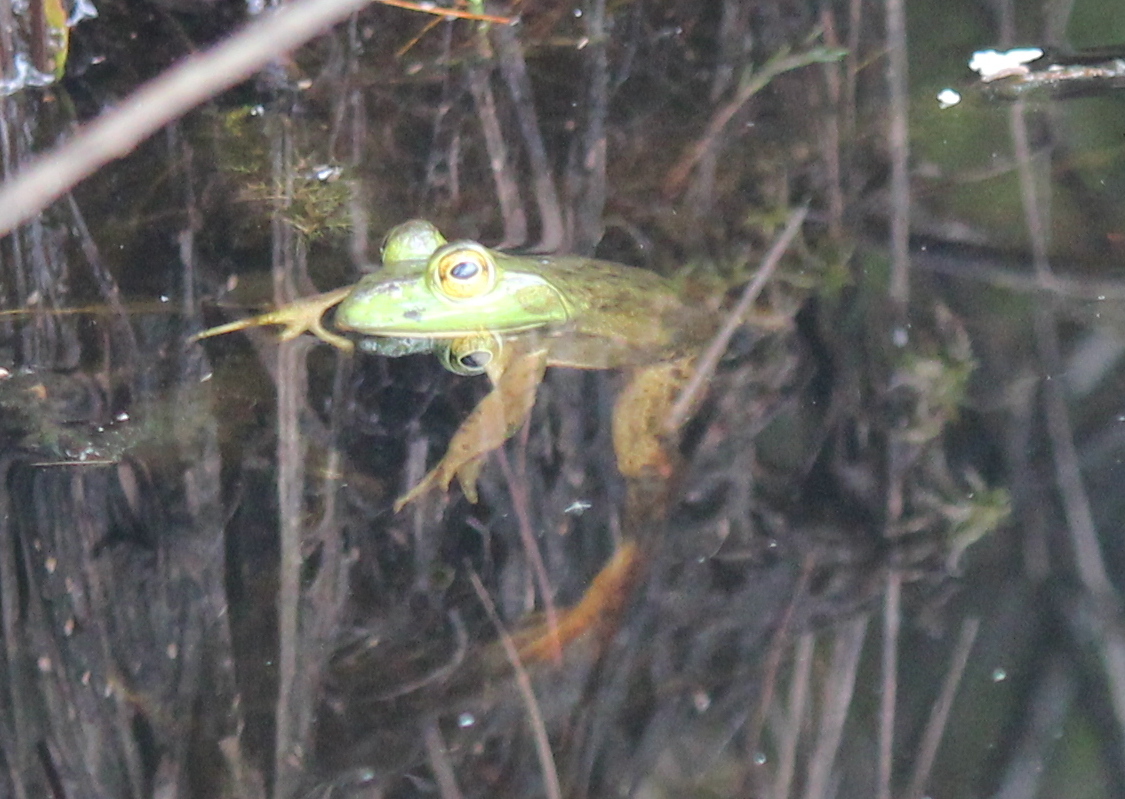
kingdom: Animalia
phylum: Chordata
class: Amphibia
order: Anura
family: Ranidae
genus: Lithobates
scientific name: Lithobates catesbeianus
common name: American bullfrog
